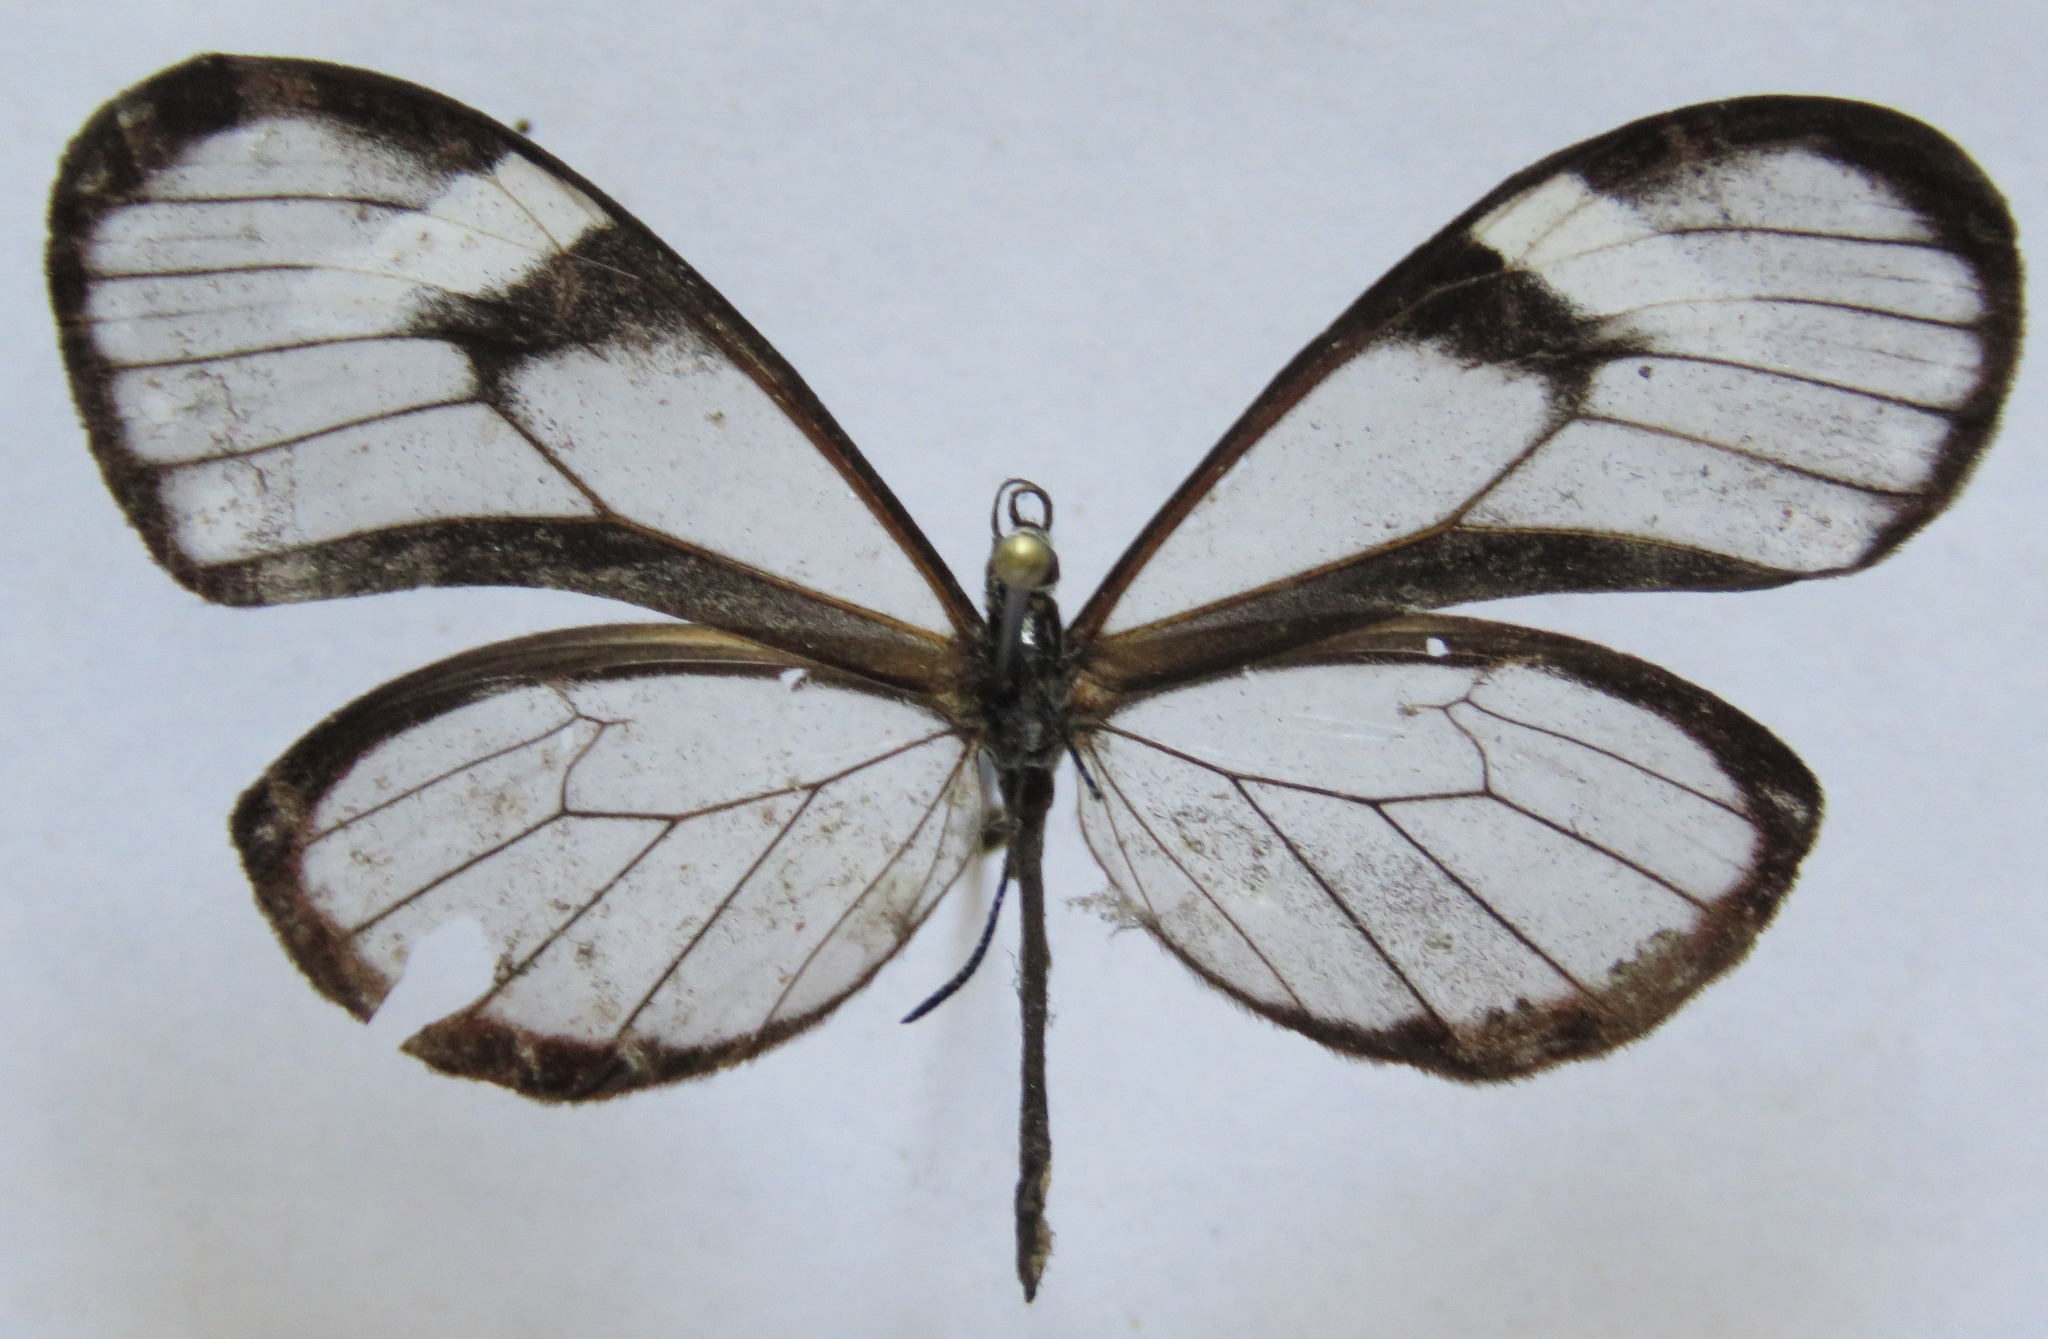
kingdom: Animalia
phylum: Arthropoda
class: Insecta
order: Lepidoptera
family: Nymphalidae
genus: Pteronymia
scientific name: Pteronymia alcmena
